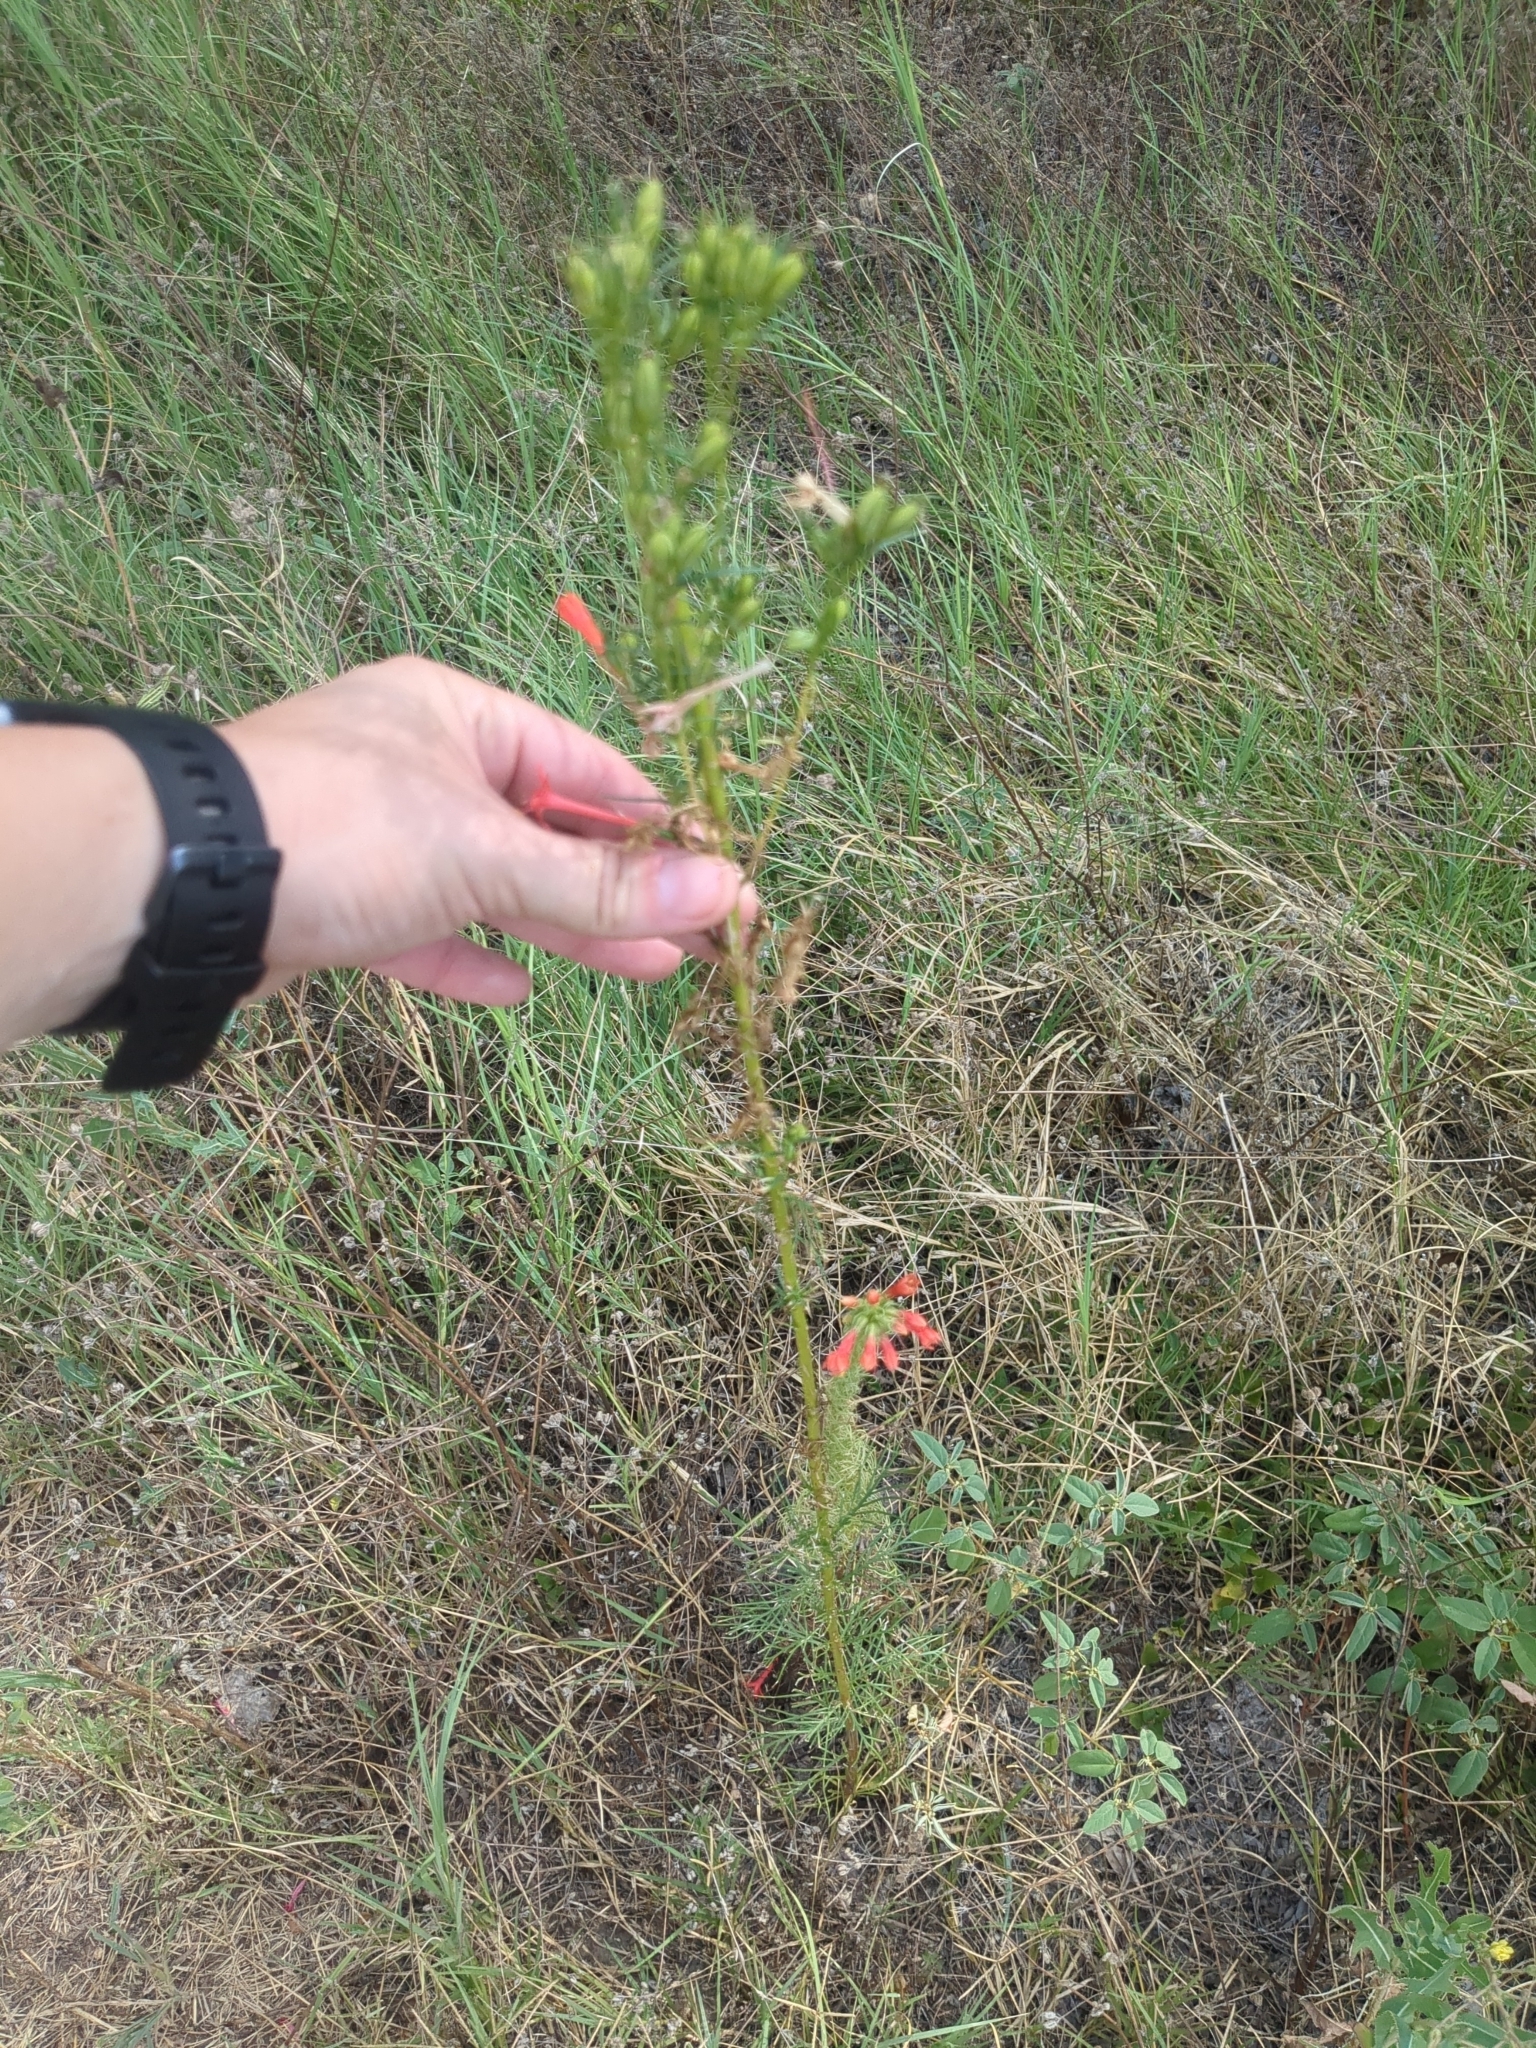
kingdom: Plantae
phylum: Tracheophyta
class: Magnoliopsida
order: Ericales
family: Polemoniaceae
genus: Ipomopsis
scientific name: Ipomopsis rubra
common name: Skyrocket
